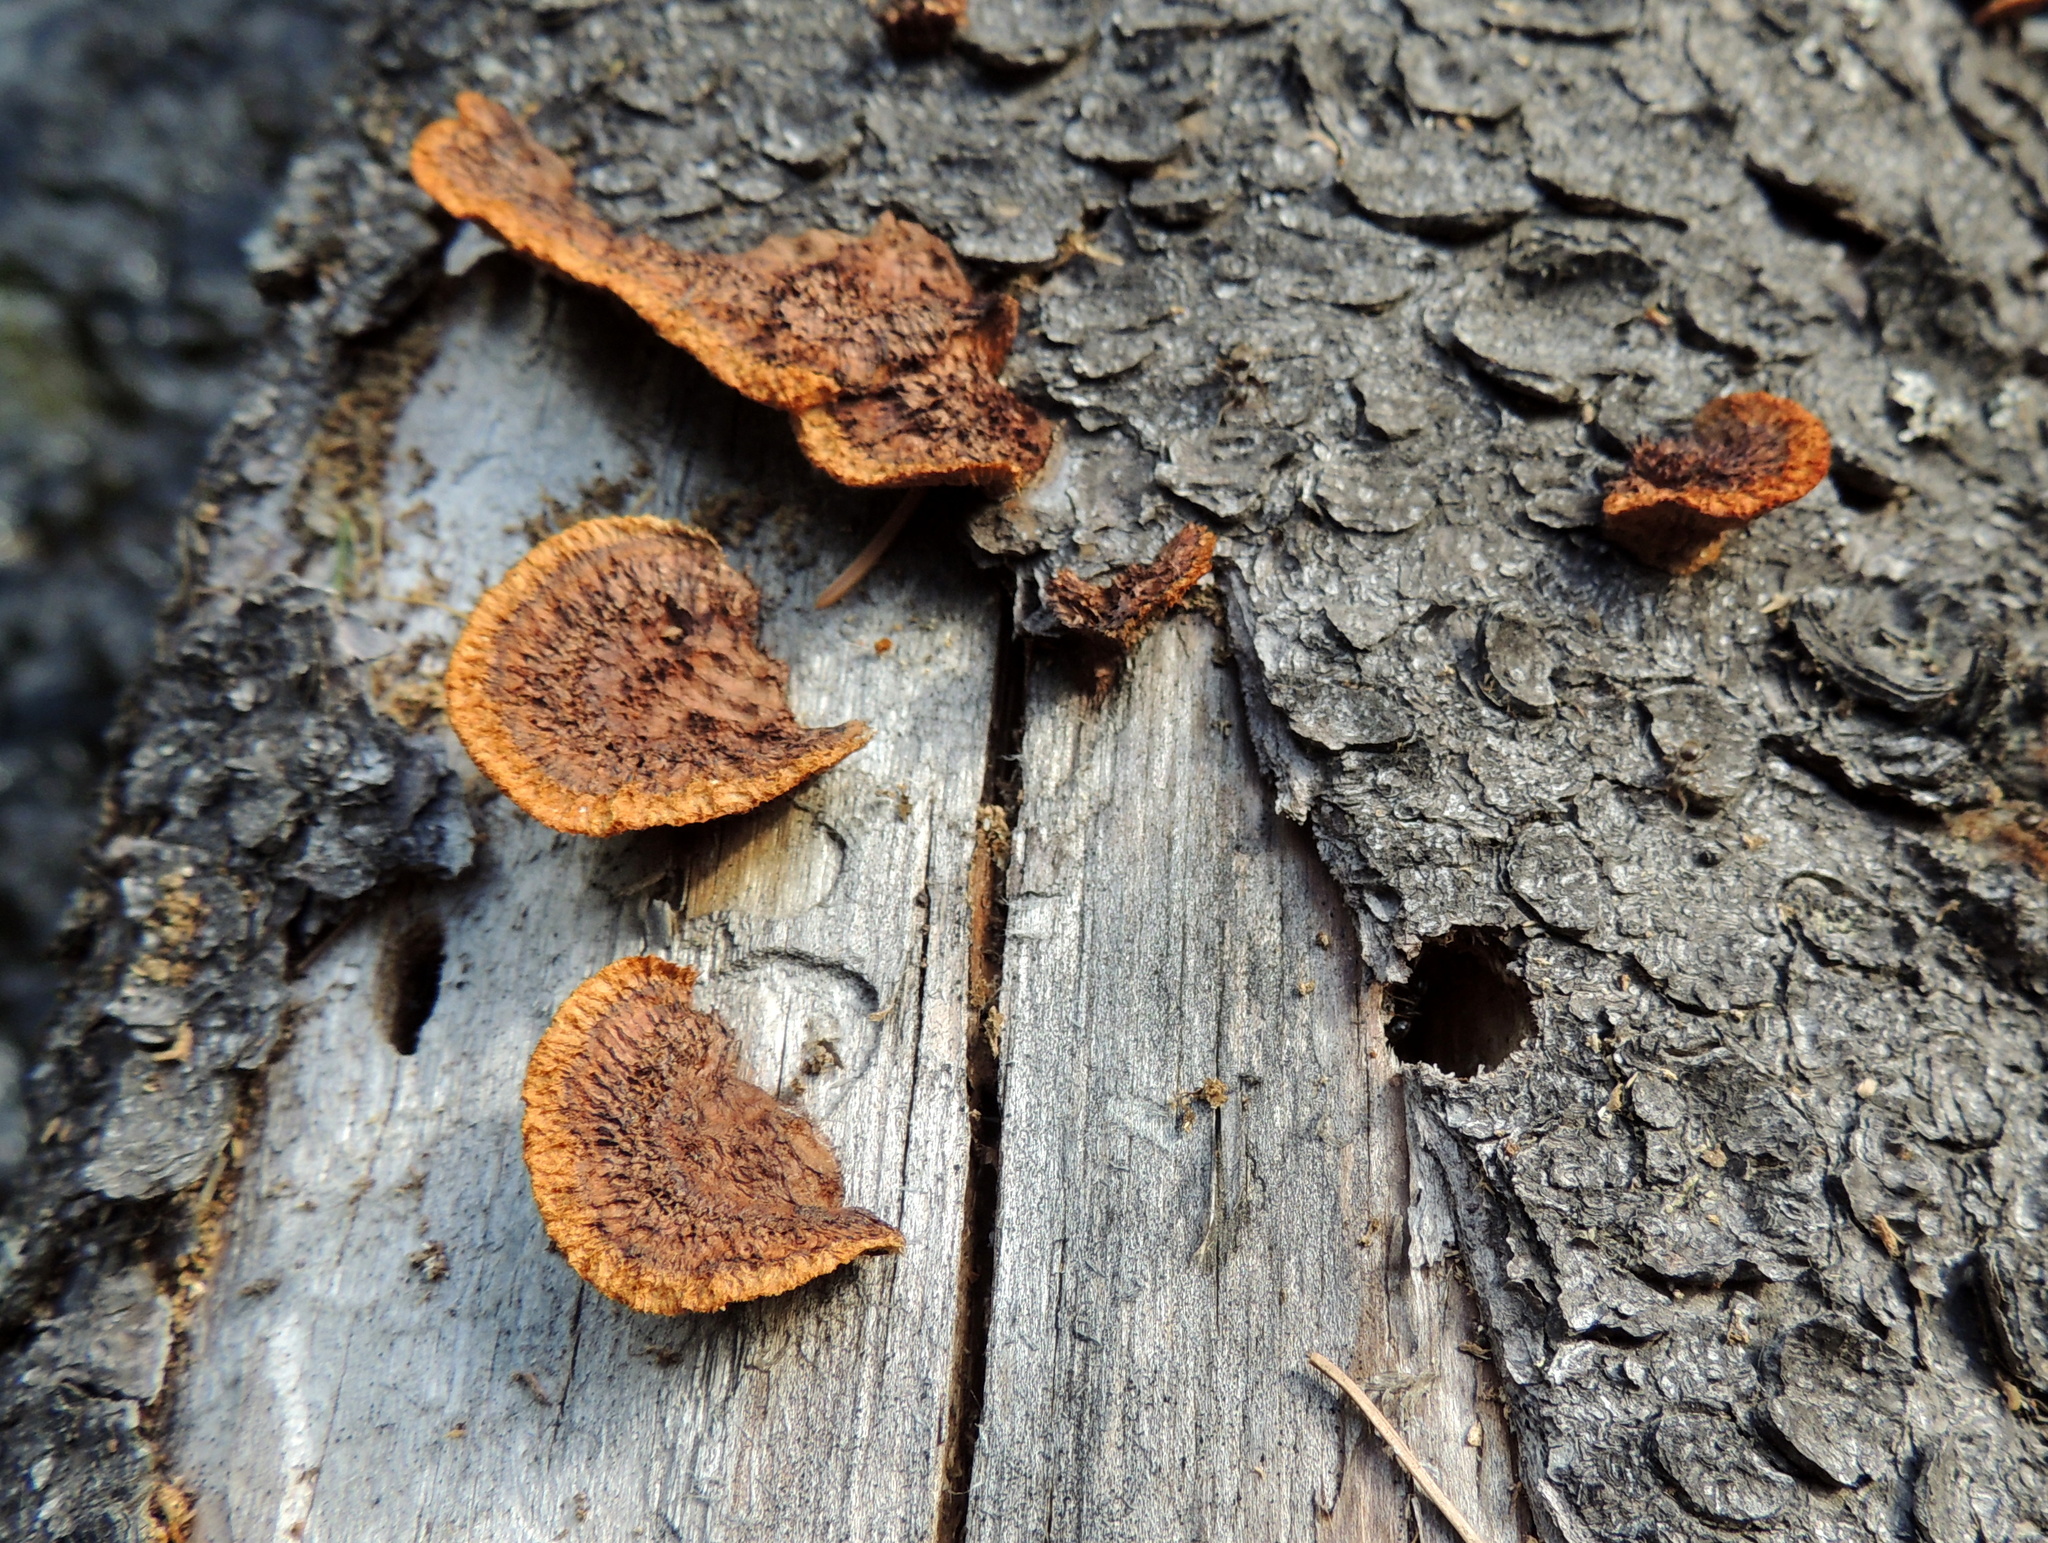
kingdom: Fungi
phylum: Basidiomycota
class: Agaricomycetes
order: Gloeophyllales
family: Gloeophyllaceae
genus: Gloeophyllum
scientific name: Gloeophyllum sepiarium
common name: Conifer mazegill
